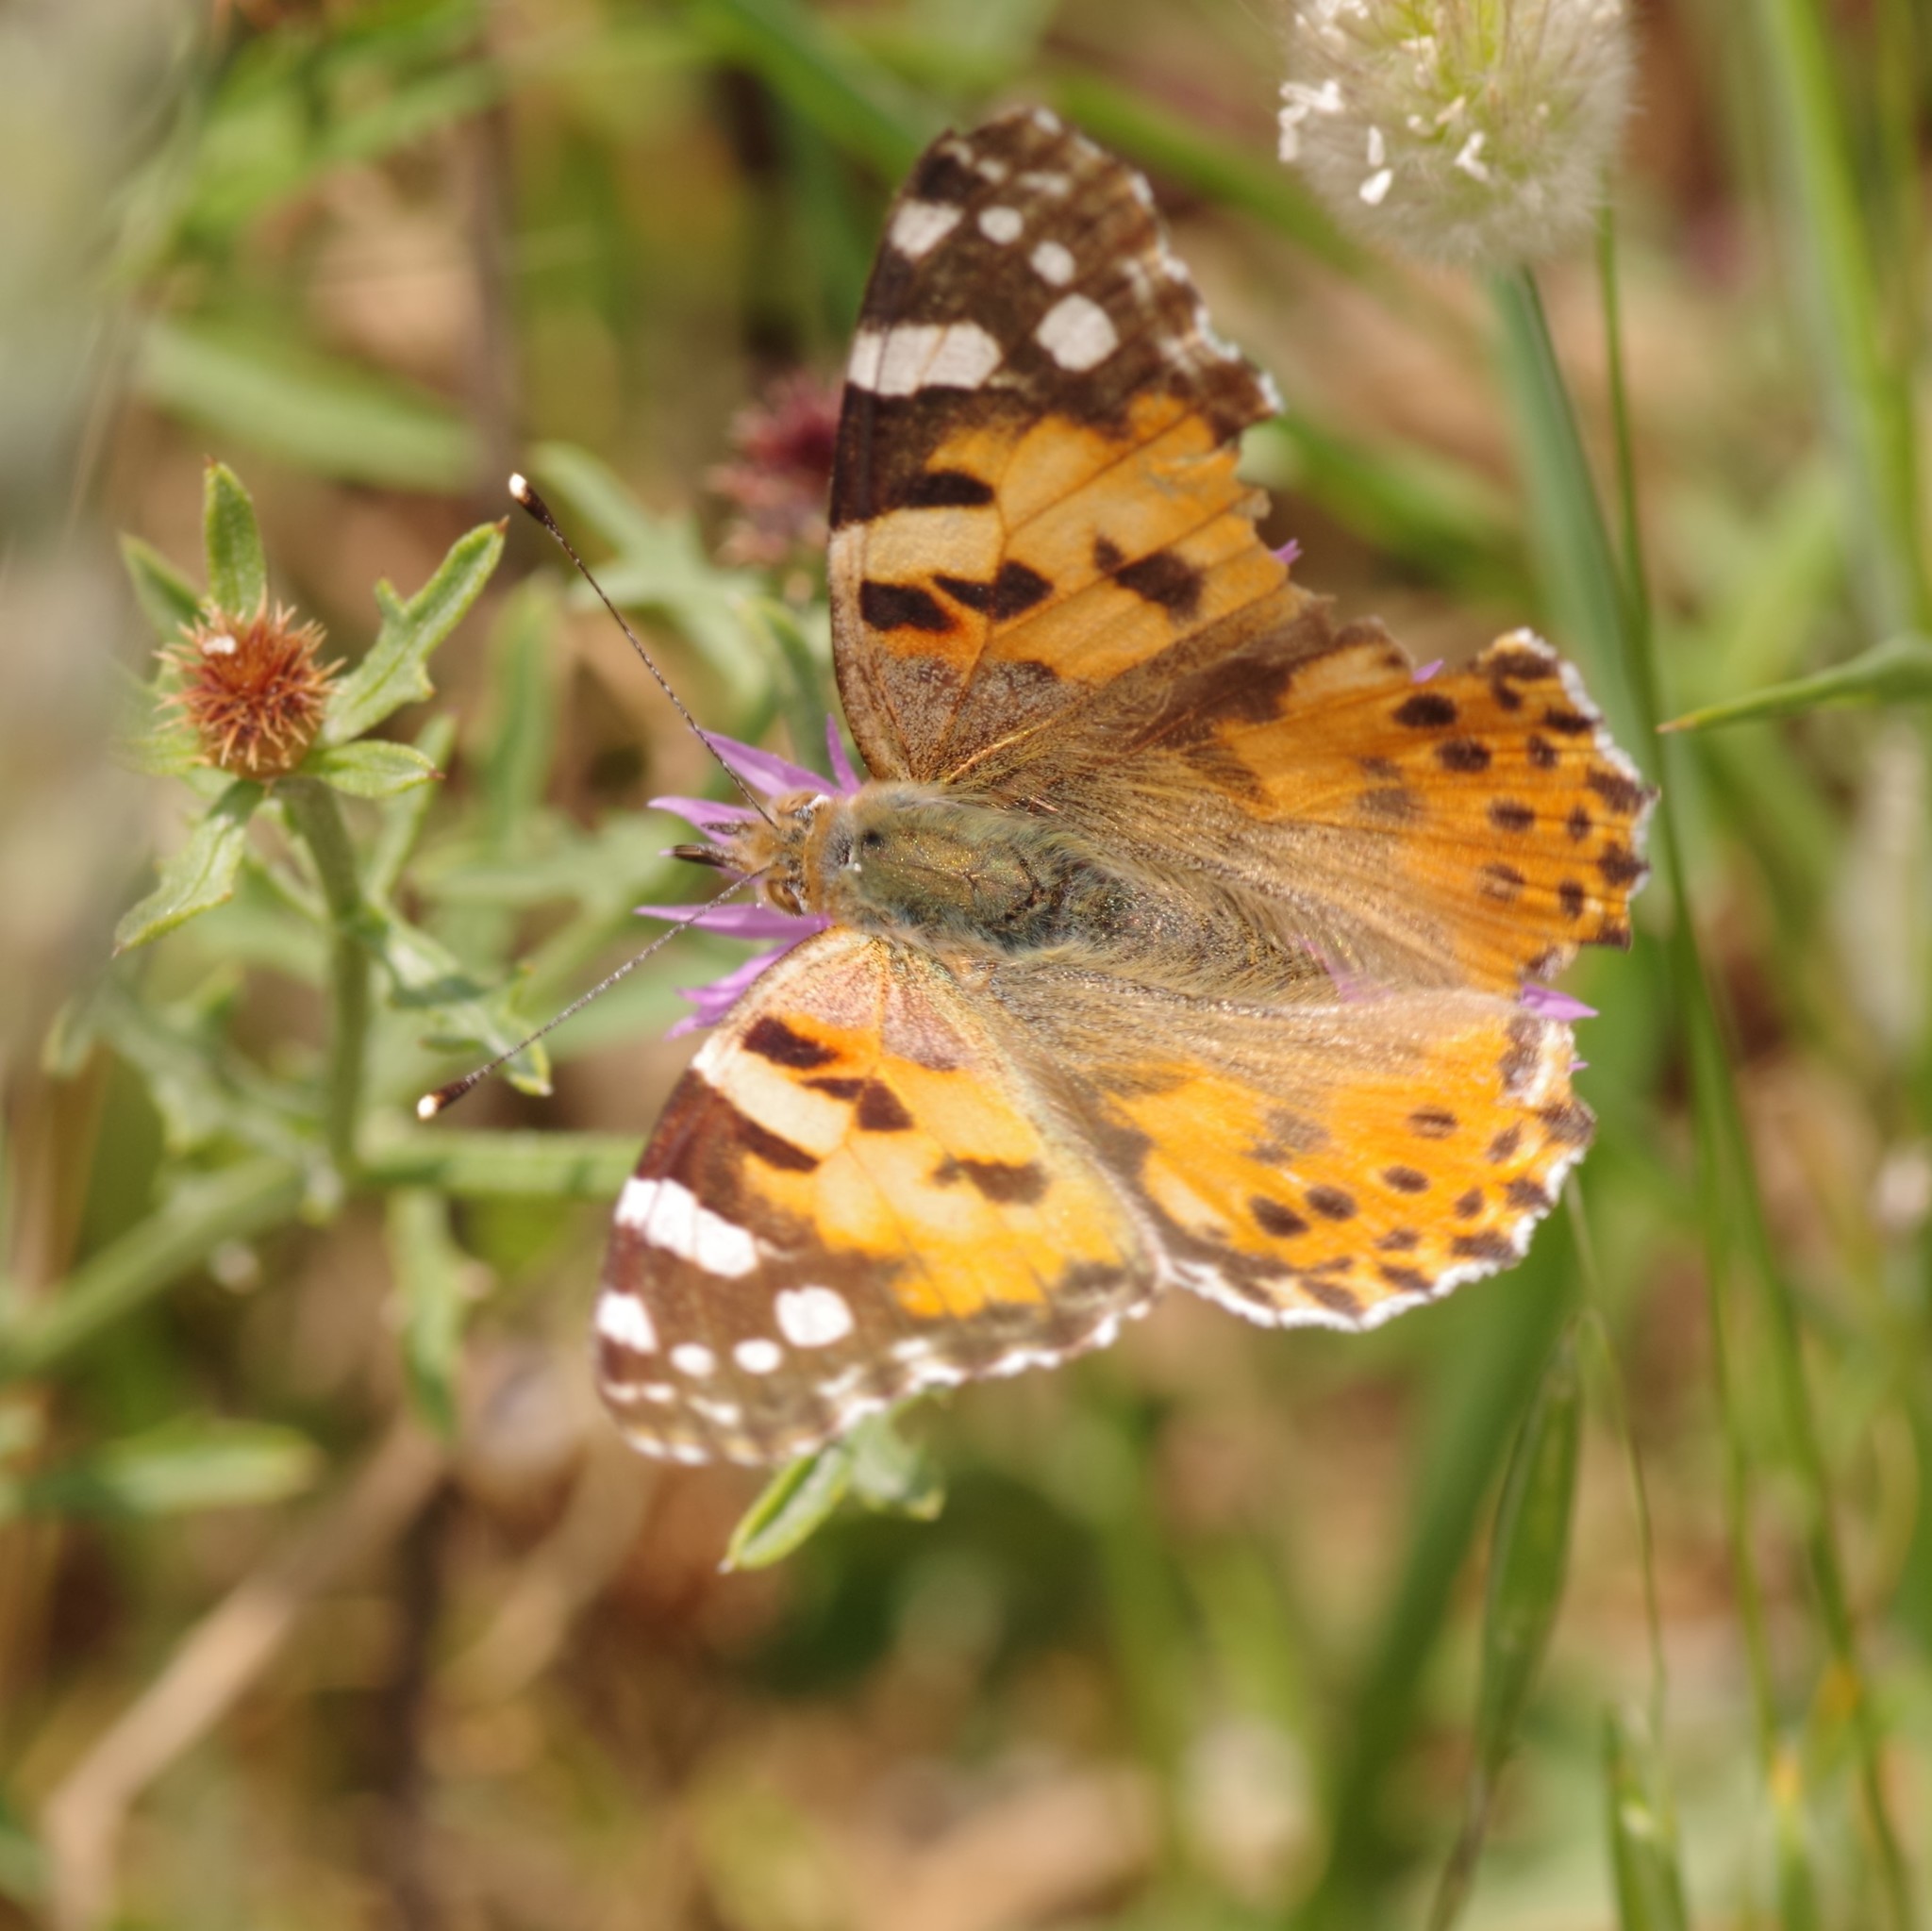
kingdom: Animalia
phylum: Arthropoda
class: Insecta
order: Lepidoptera
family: Nymphalidae
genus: Vanessa
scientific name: Vanessa cardui
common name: Painted lady
